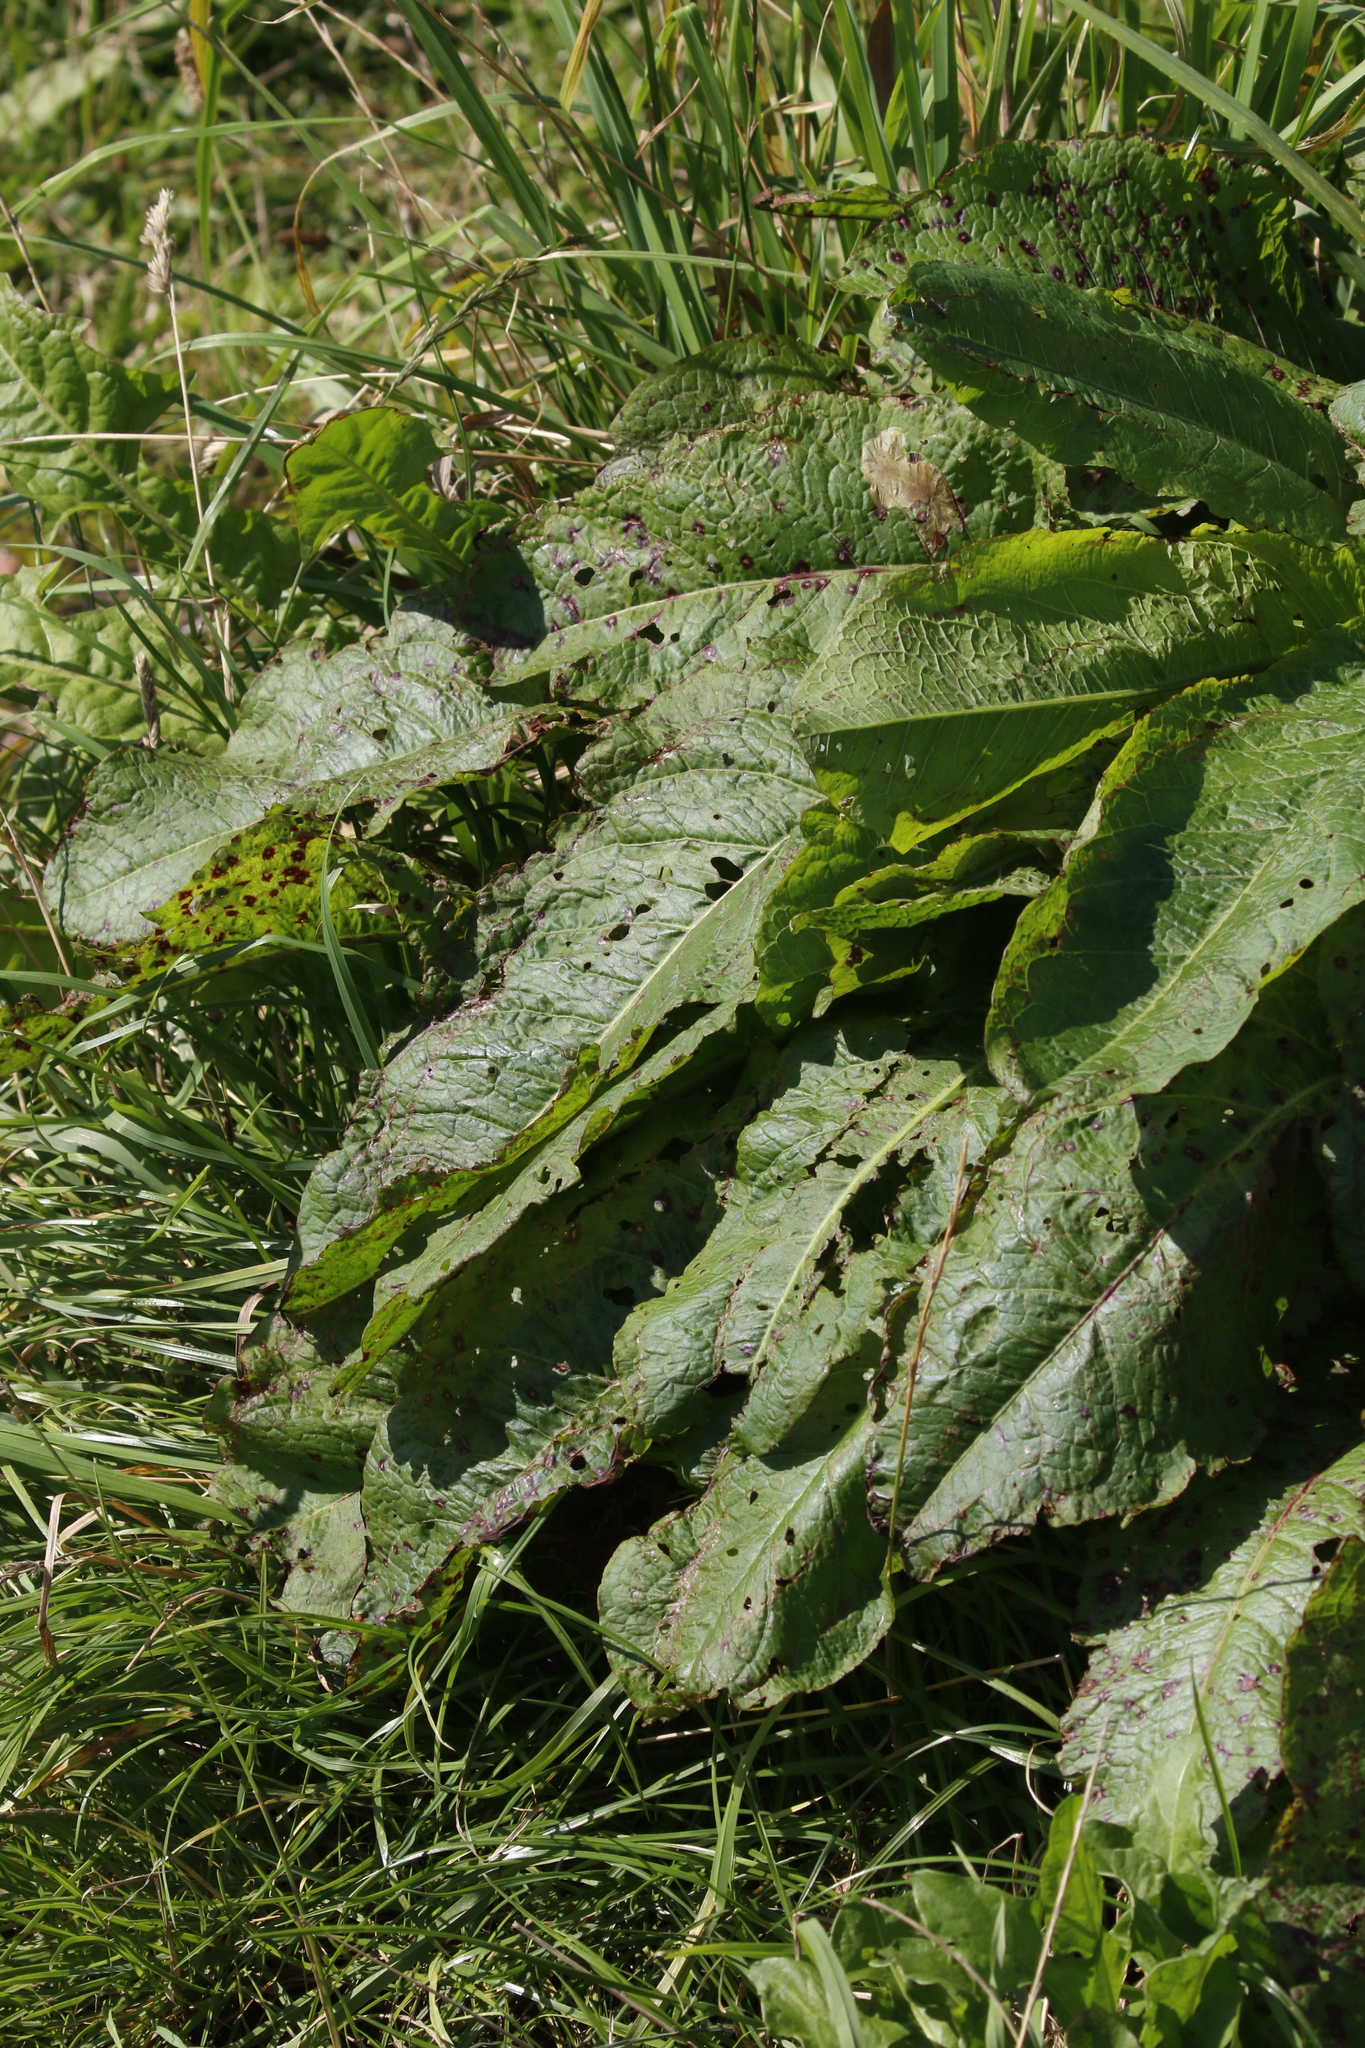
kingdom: Plantae
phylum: Tracheophyta
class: Magnoliopsida
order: Caryophyllales
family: Polygonaceae
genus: Rumex
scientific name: Rumex obtusifolius
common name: Bitter dock
